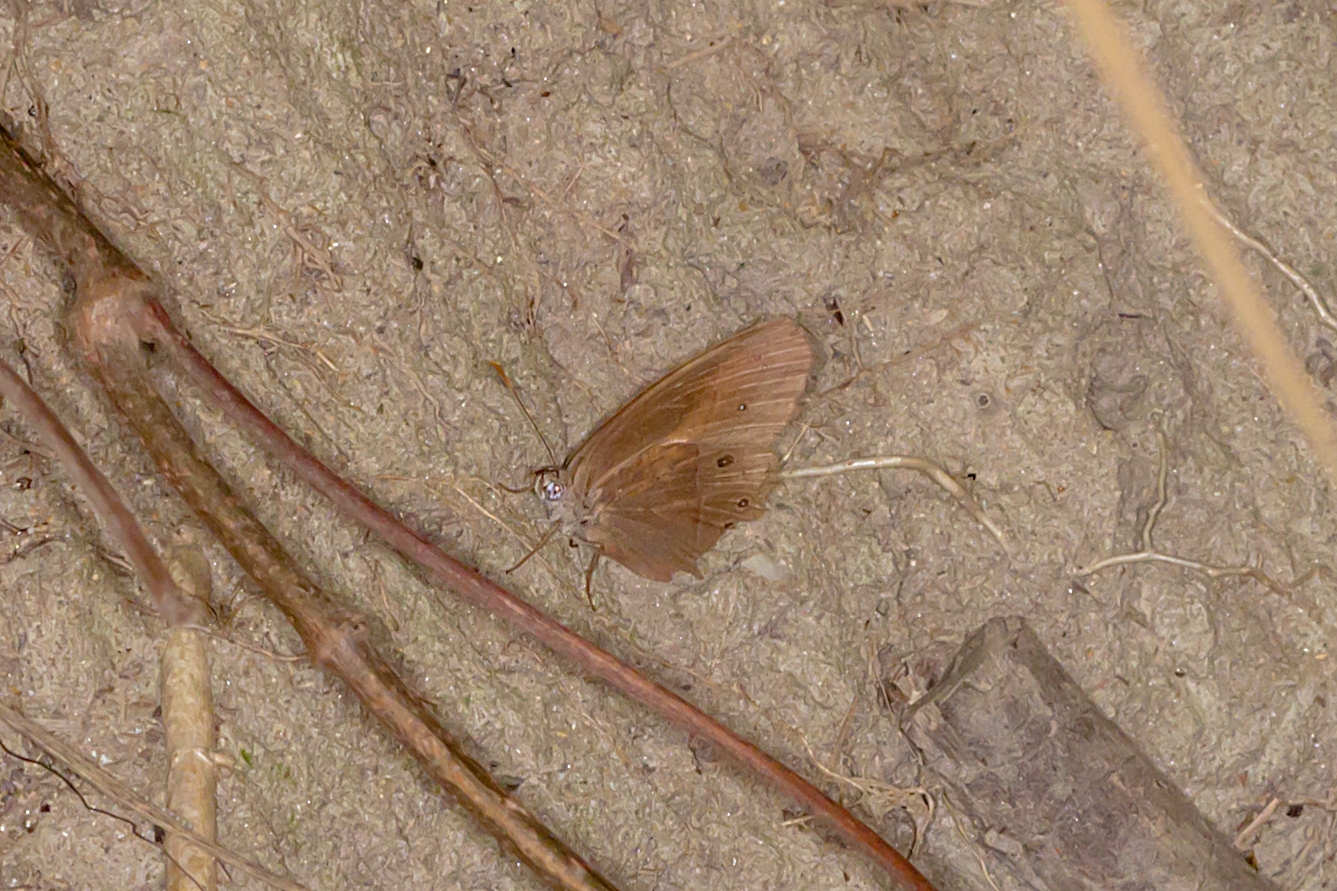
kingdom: Animalia
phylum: Arthropoda
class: Insecta
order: Lepidoptera
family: Nymphalidae
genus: Mycalesis
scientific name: Mycalesis perseus
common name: Dingy bushbrown
